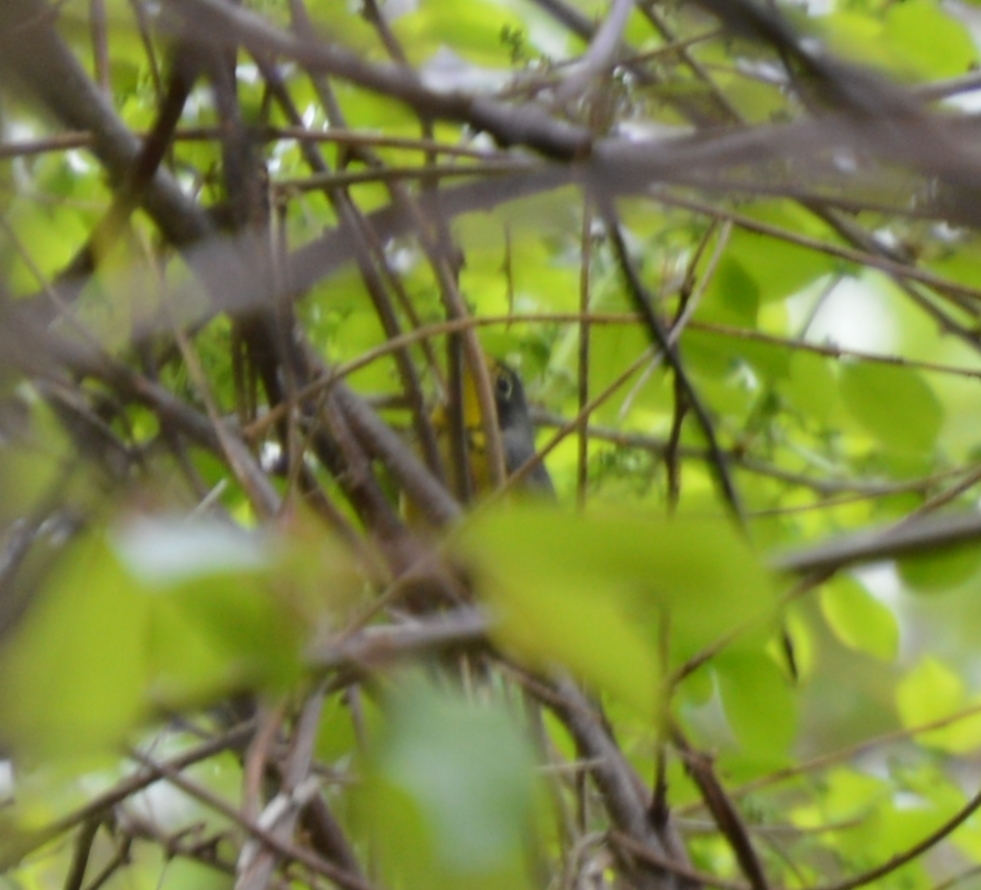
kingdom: Animalia
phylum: Chordata
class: Aves
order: Passeriformes
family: Parulidae
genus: Cardellina
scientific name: Cardellina canadensis
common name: Canada warbler
